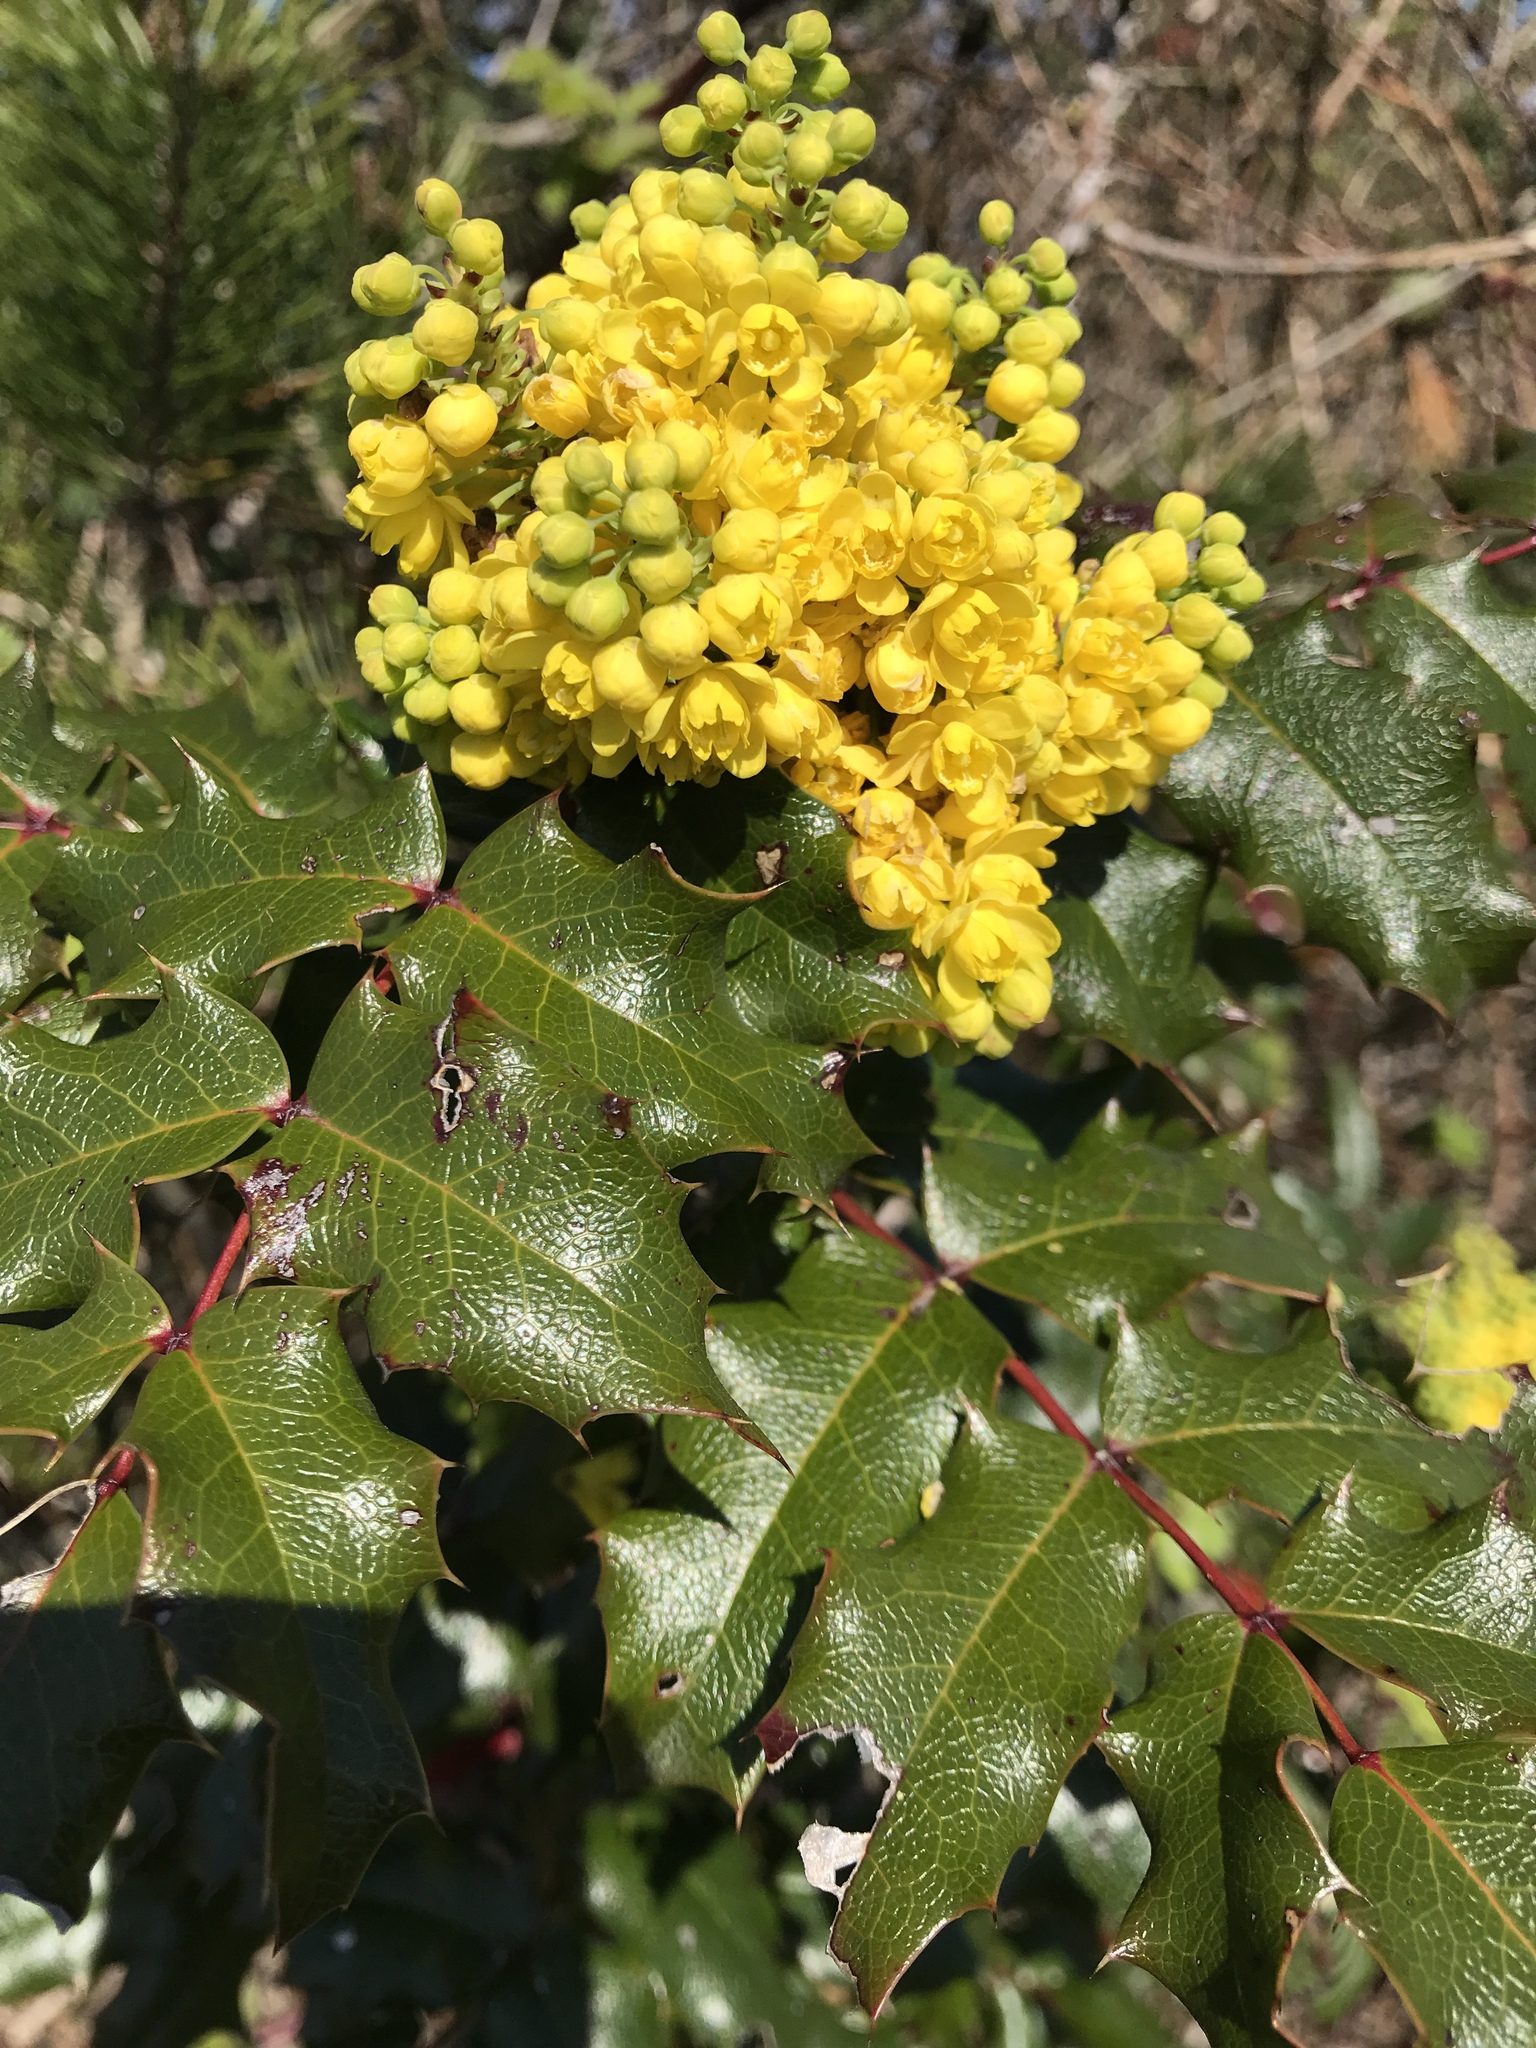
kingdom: Plantae
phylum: Tracheophyta
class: Magnoliopsida
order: Ranunculales
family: Berberidaceae
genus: Mahonia
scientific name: Mahonia aquifolium
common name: Oregon-grape
